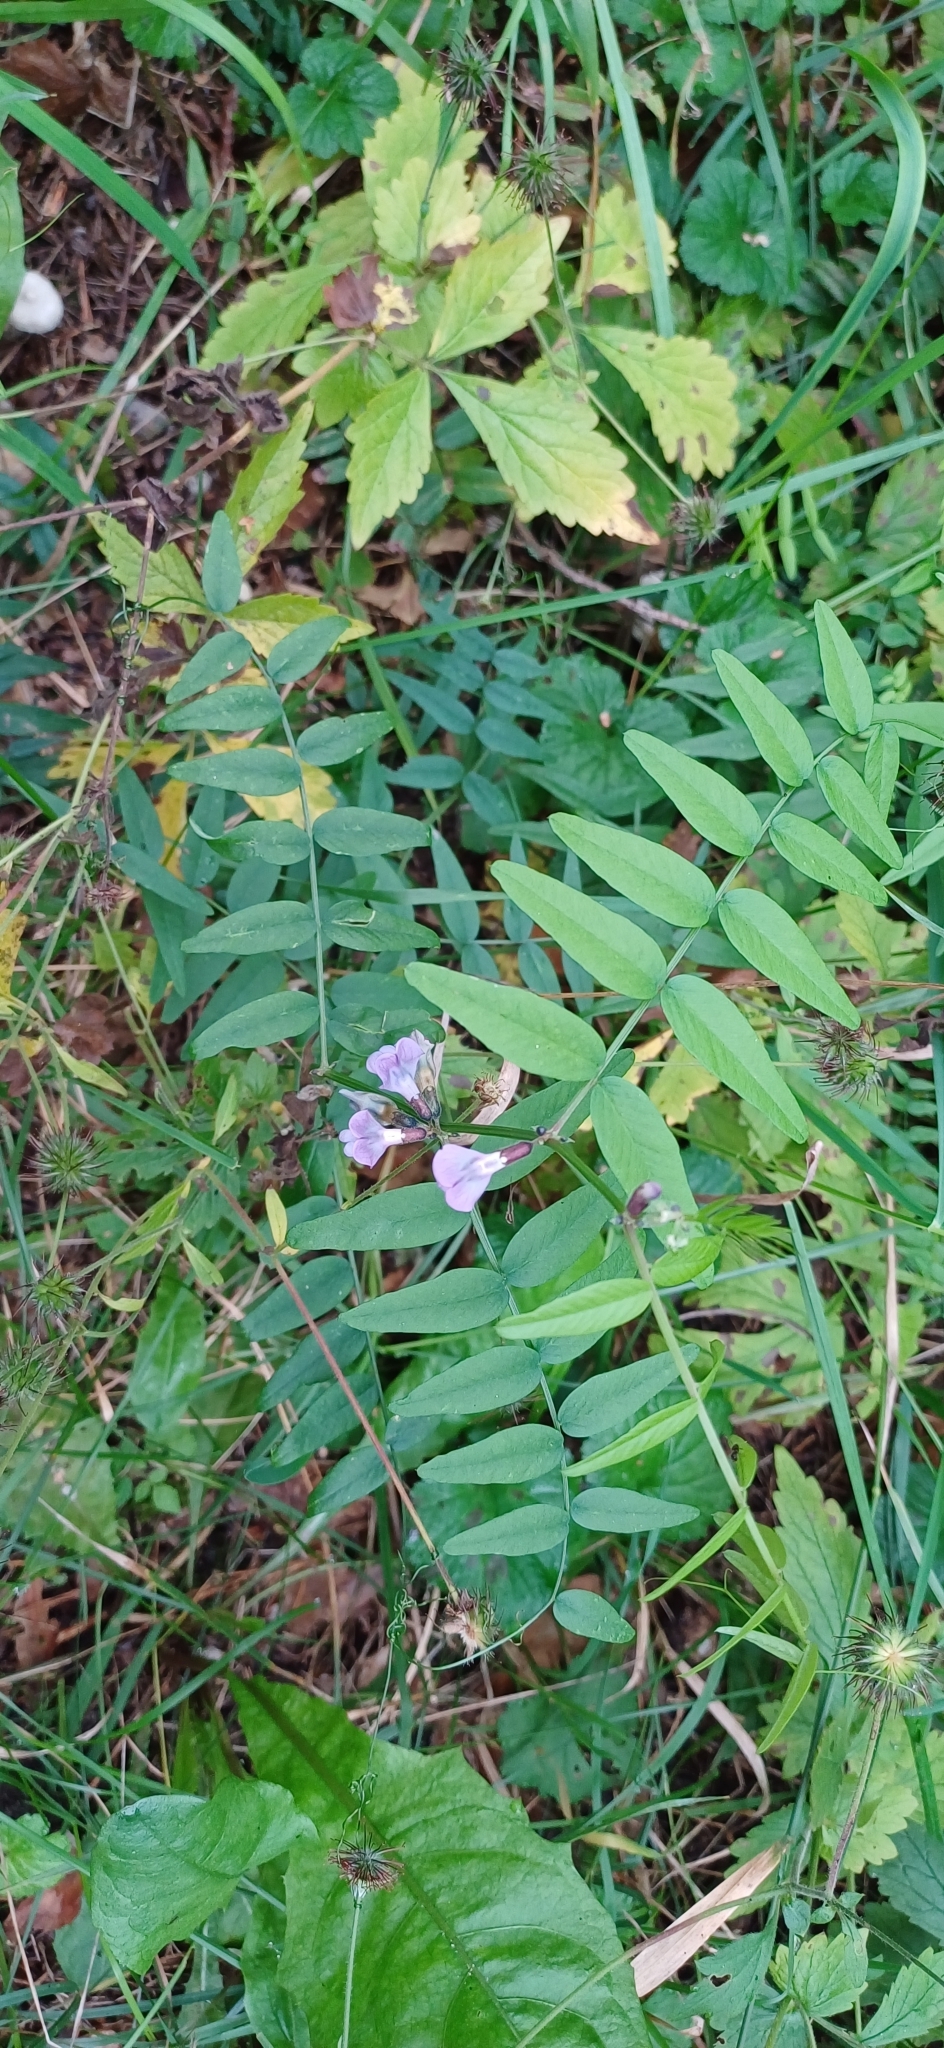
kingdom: Plantae
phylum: Tracheophyta
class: Magnoliopsida
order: Fabales
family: Fabaceae
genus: Vicia
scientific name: Vicia sepium
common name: Bush vetch
